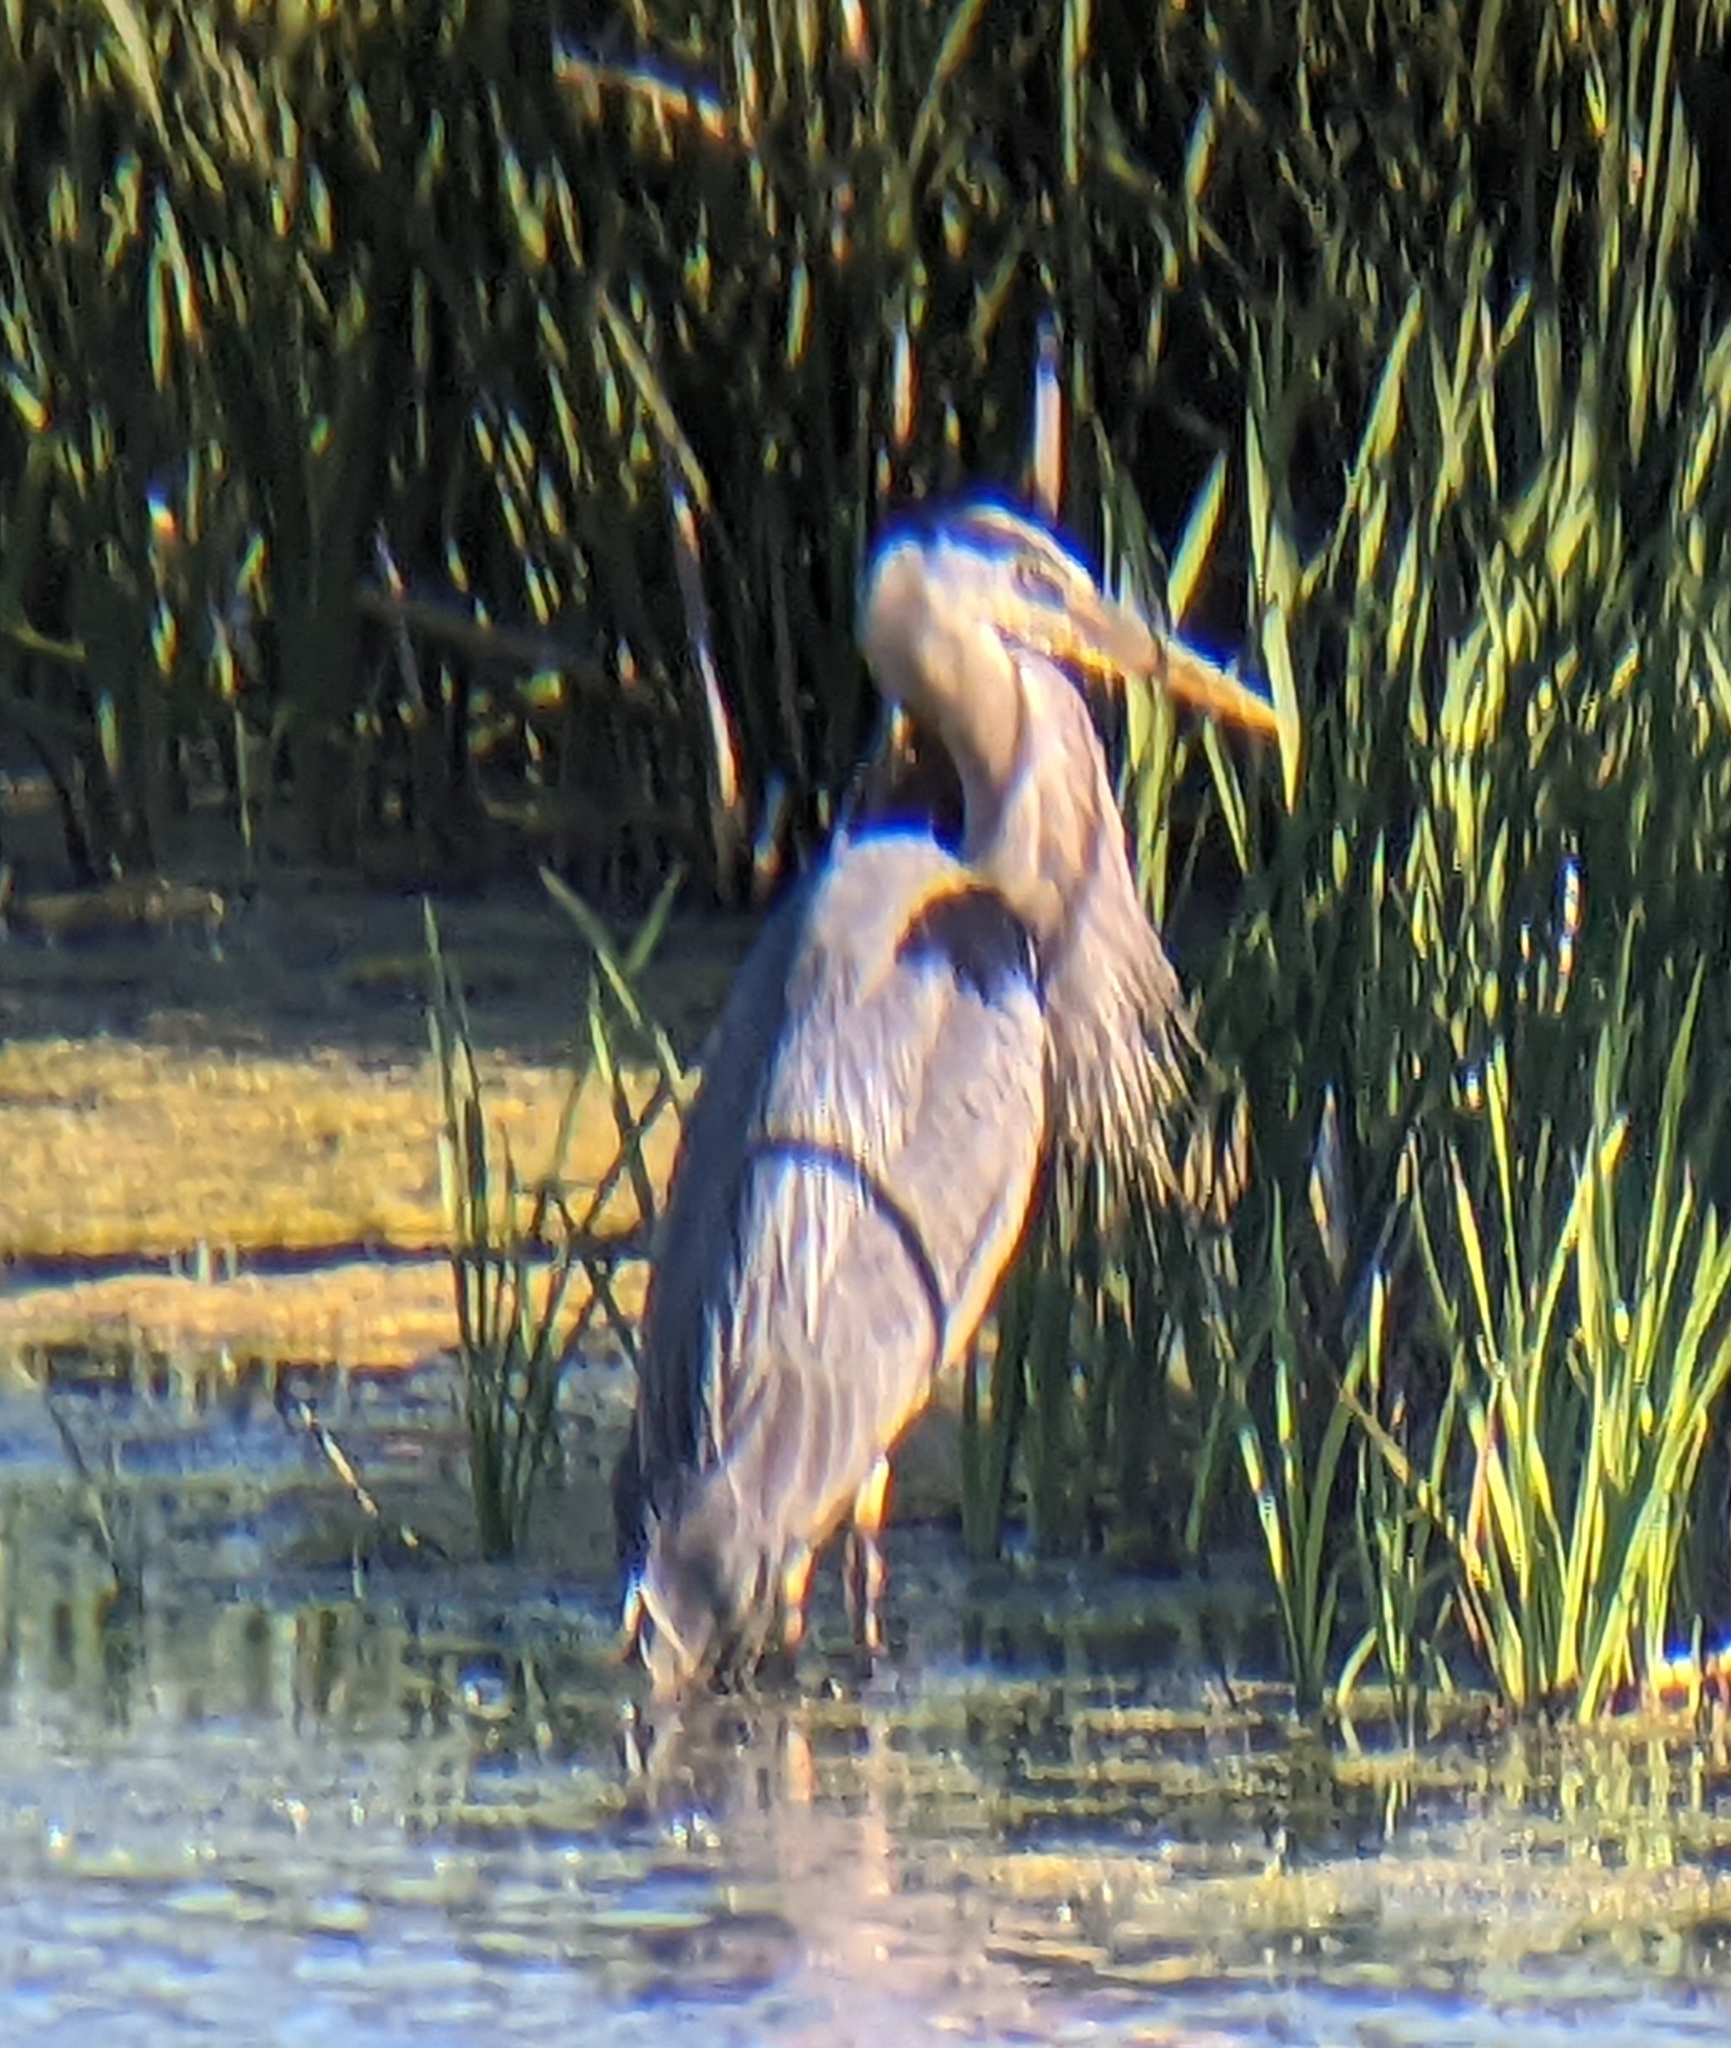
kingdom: Animalia
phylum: Chordata
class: Aves
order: Pelecaniformes
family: Ardeidae
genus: Ardea
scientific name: Ardea herodias
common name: Great blue heron
